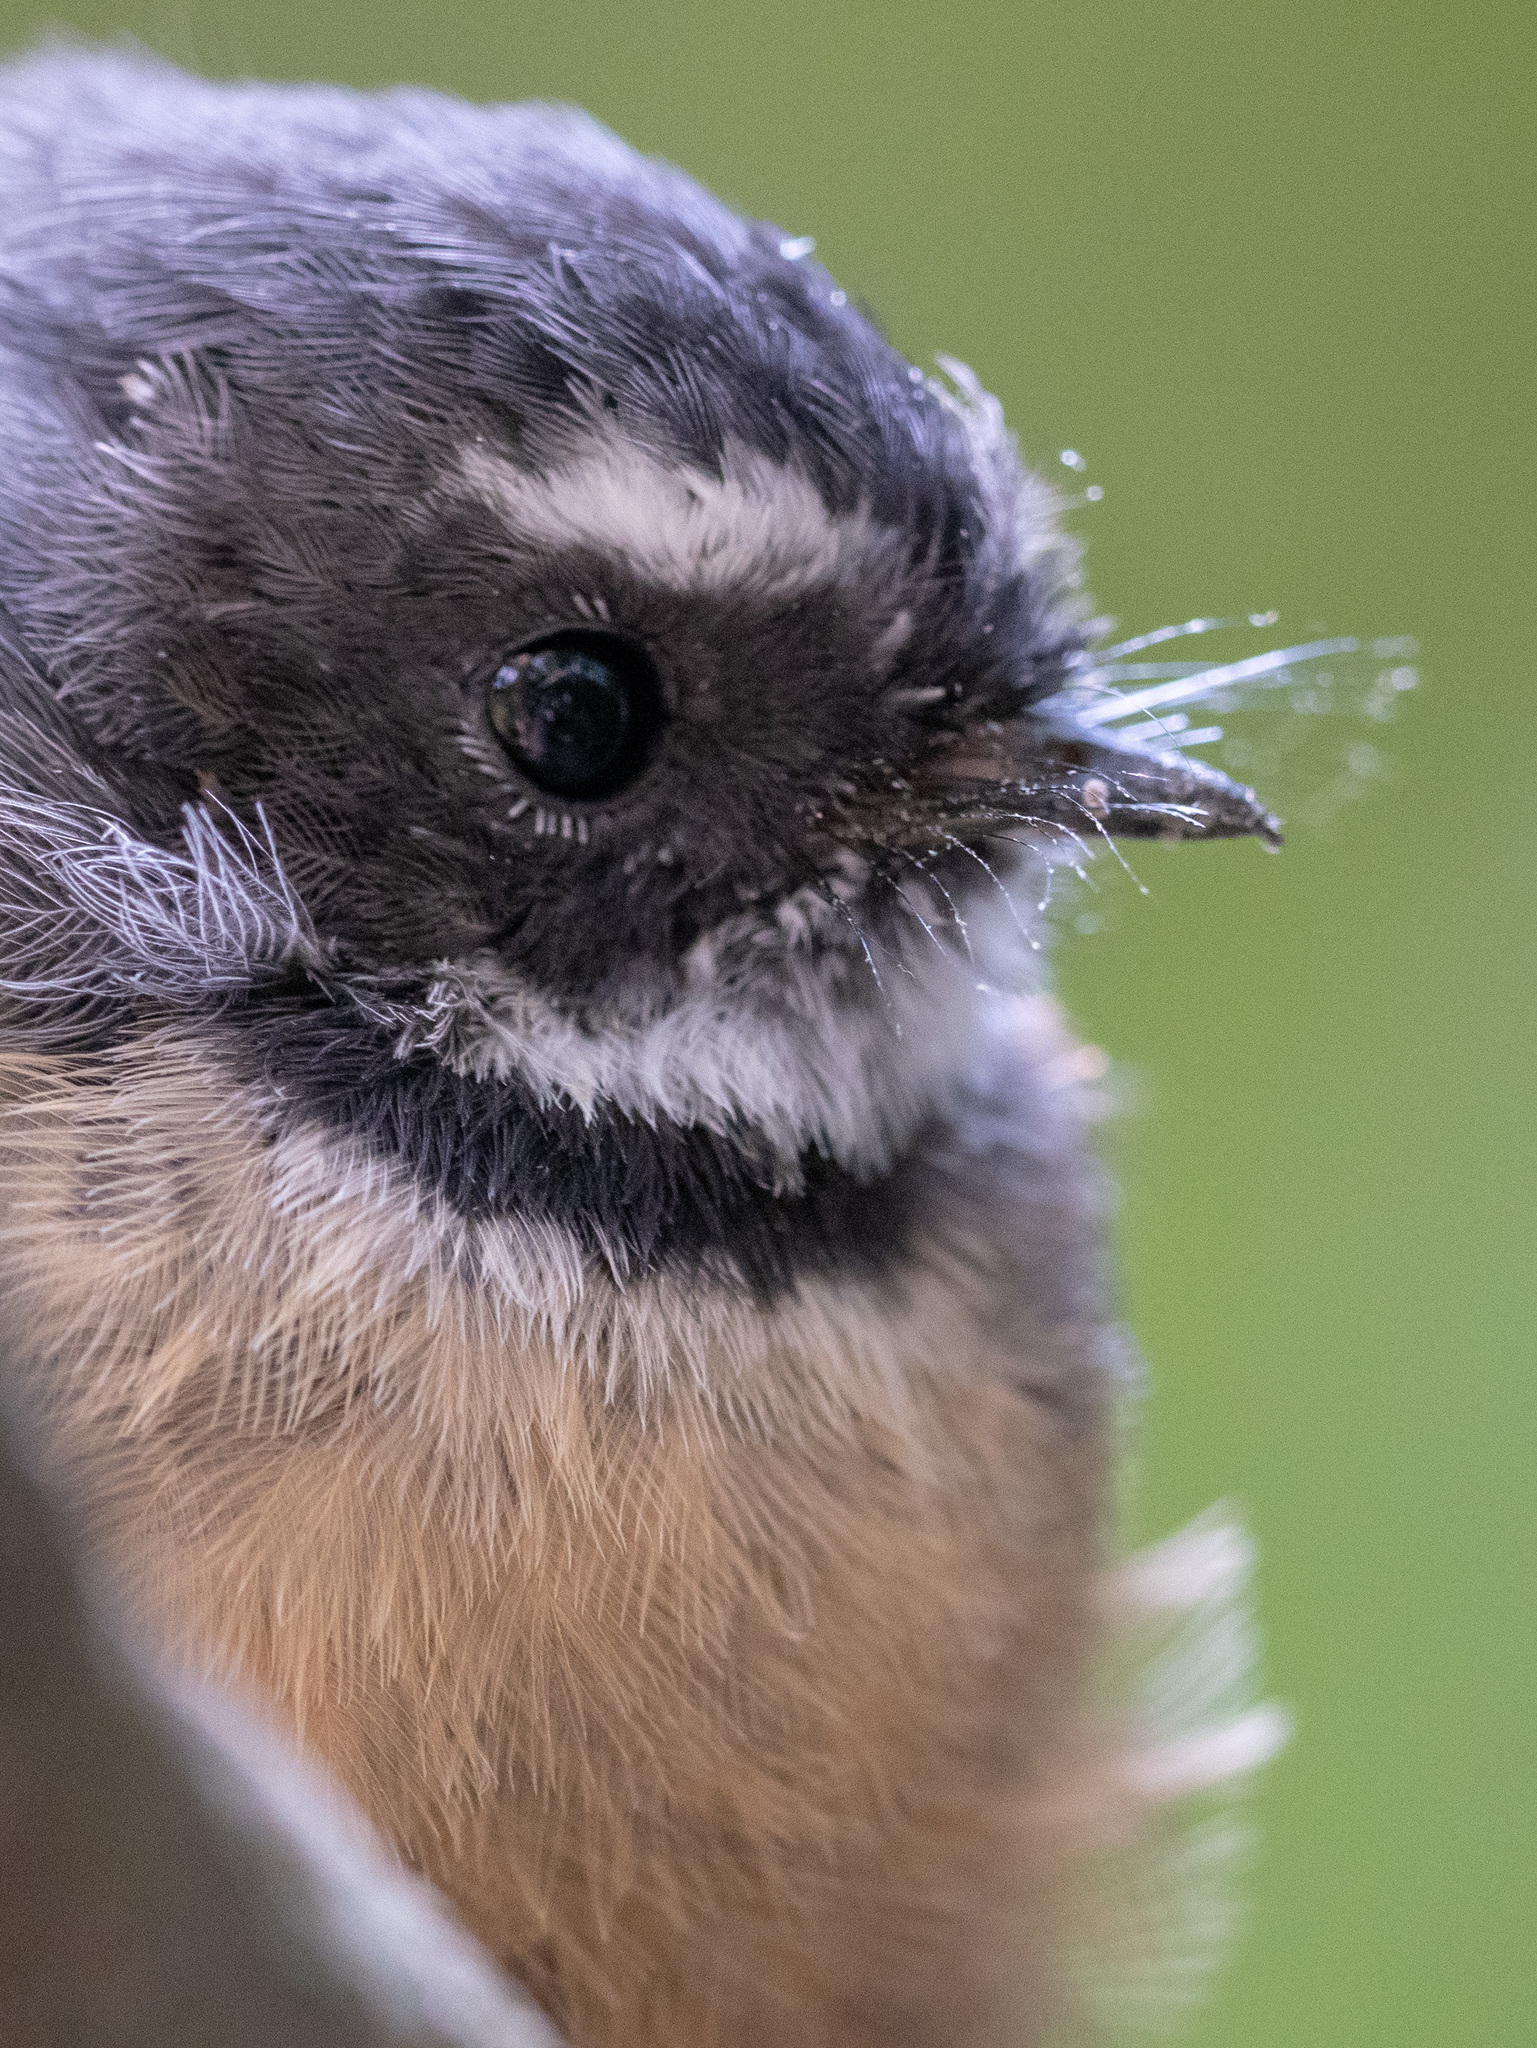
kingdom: Animalia
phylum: Chordata
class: Aves
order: Passeriformes
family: Rhipiduridae
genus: Rhipidura
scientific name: Rhipidura fuliginosa
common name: New zealand fantail
